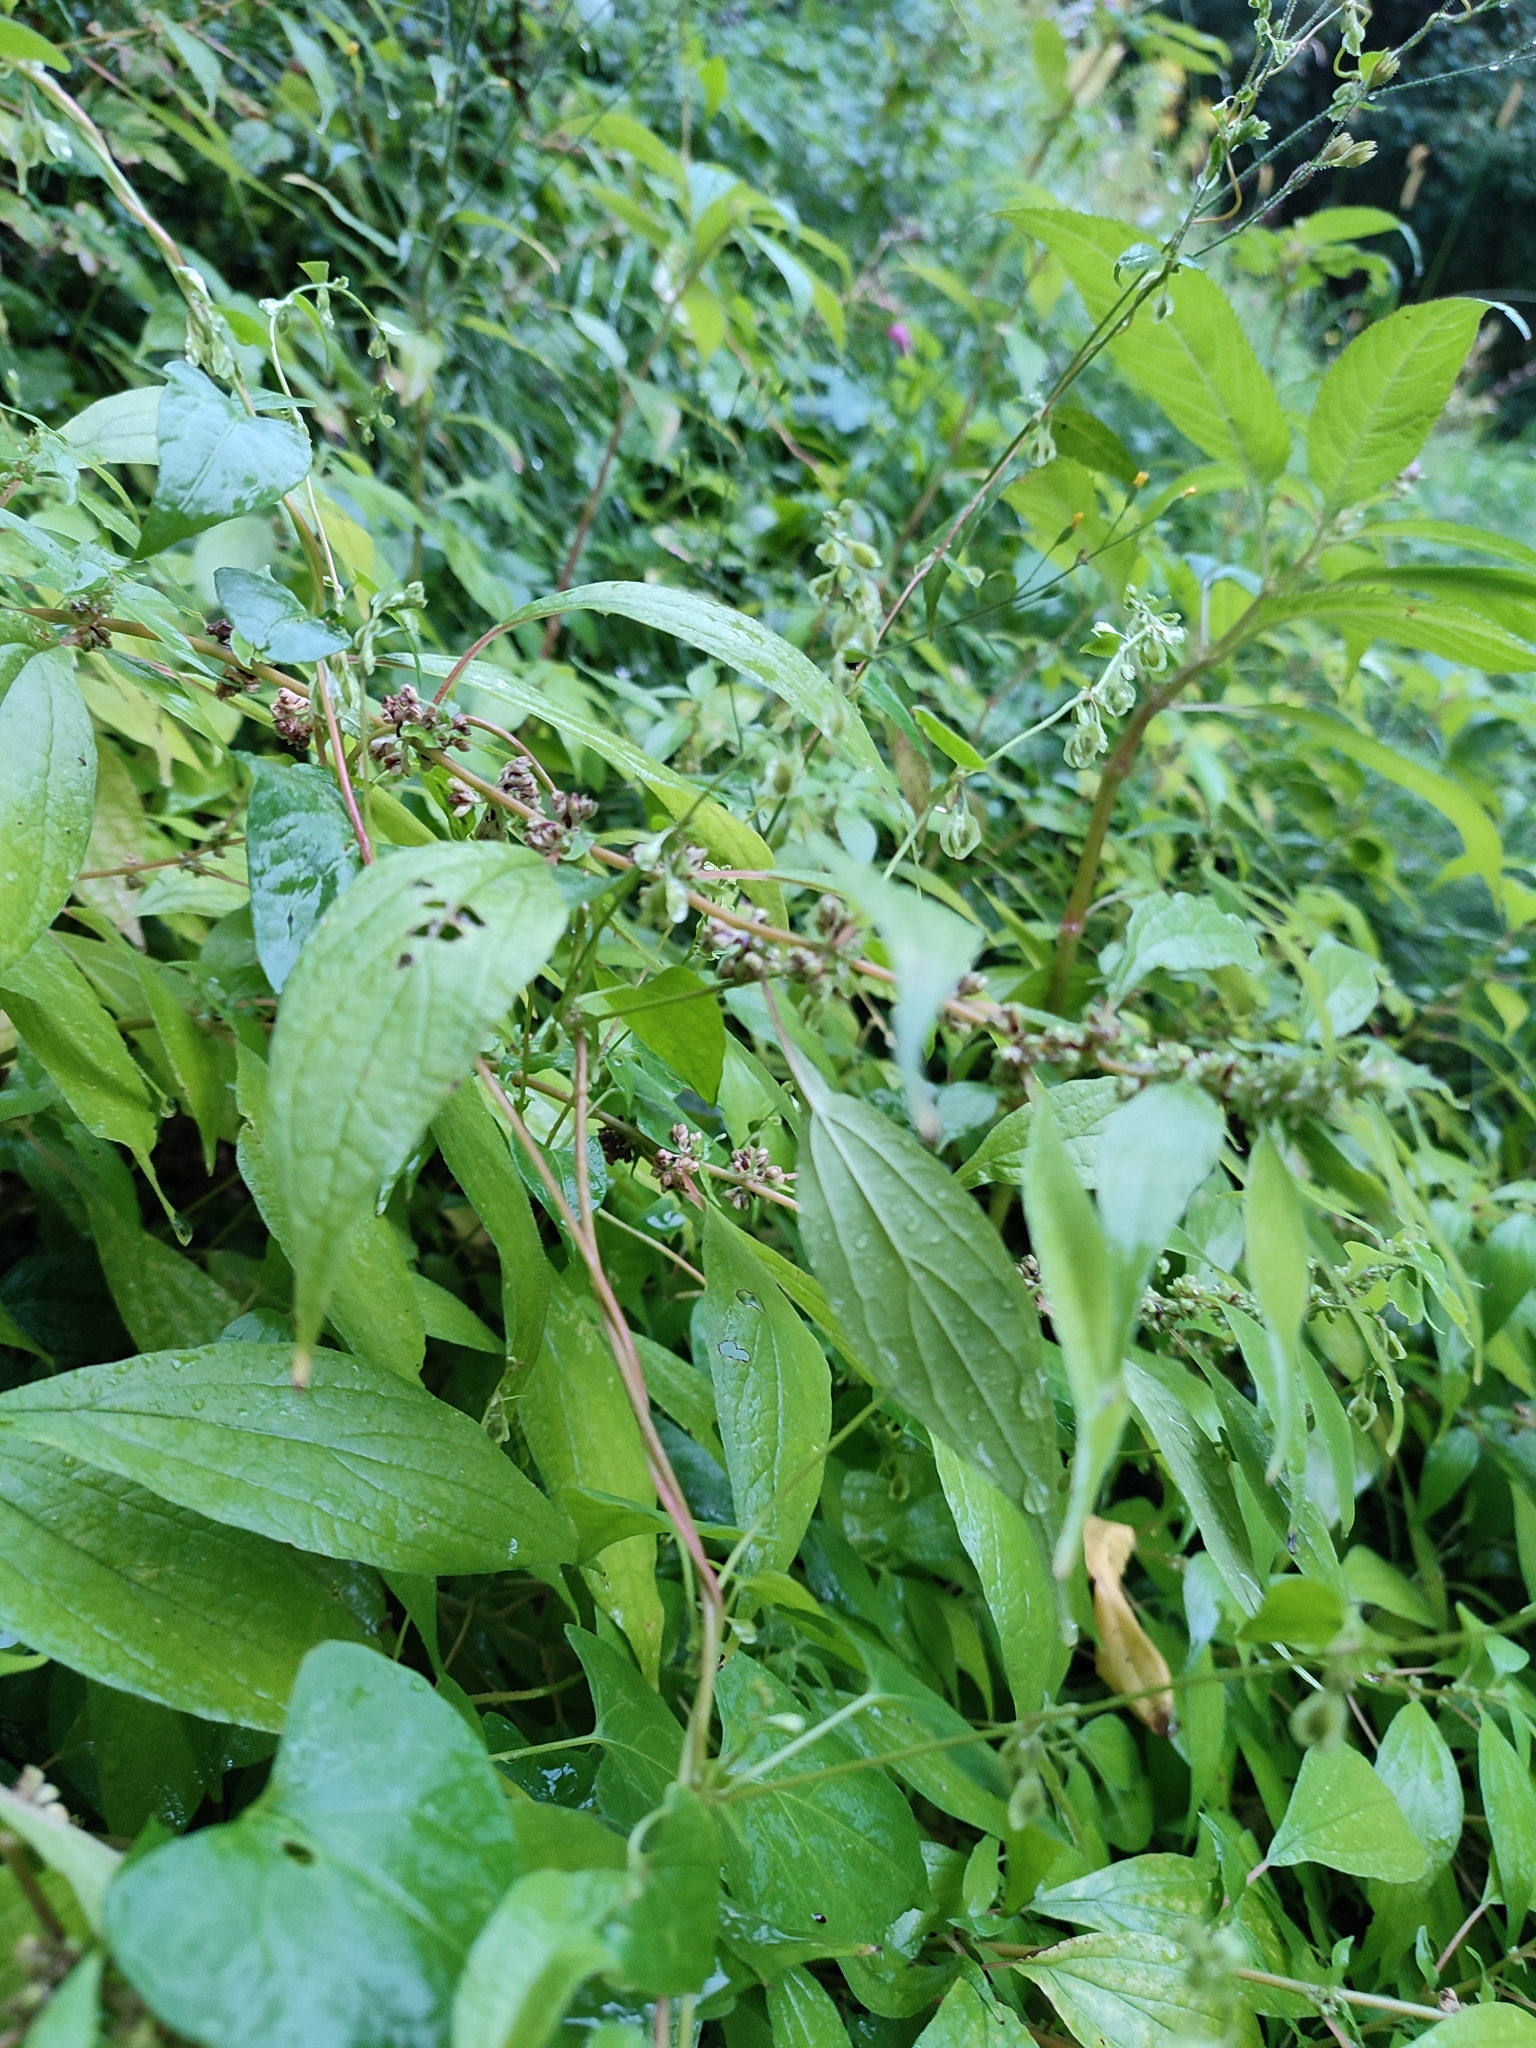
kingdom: Plantae
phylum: Tracheophyta
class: Magnoliopsida
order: Rosales
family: Urticaceae
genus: Parietaria
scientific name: Parietaria officinalis
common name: Eastern pellitory-of-the-wall
